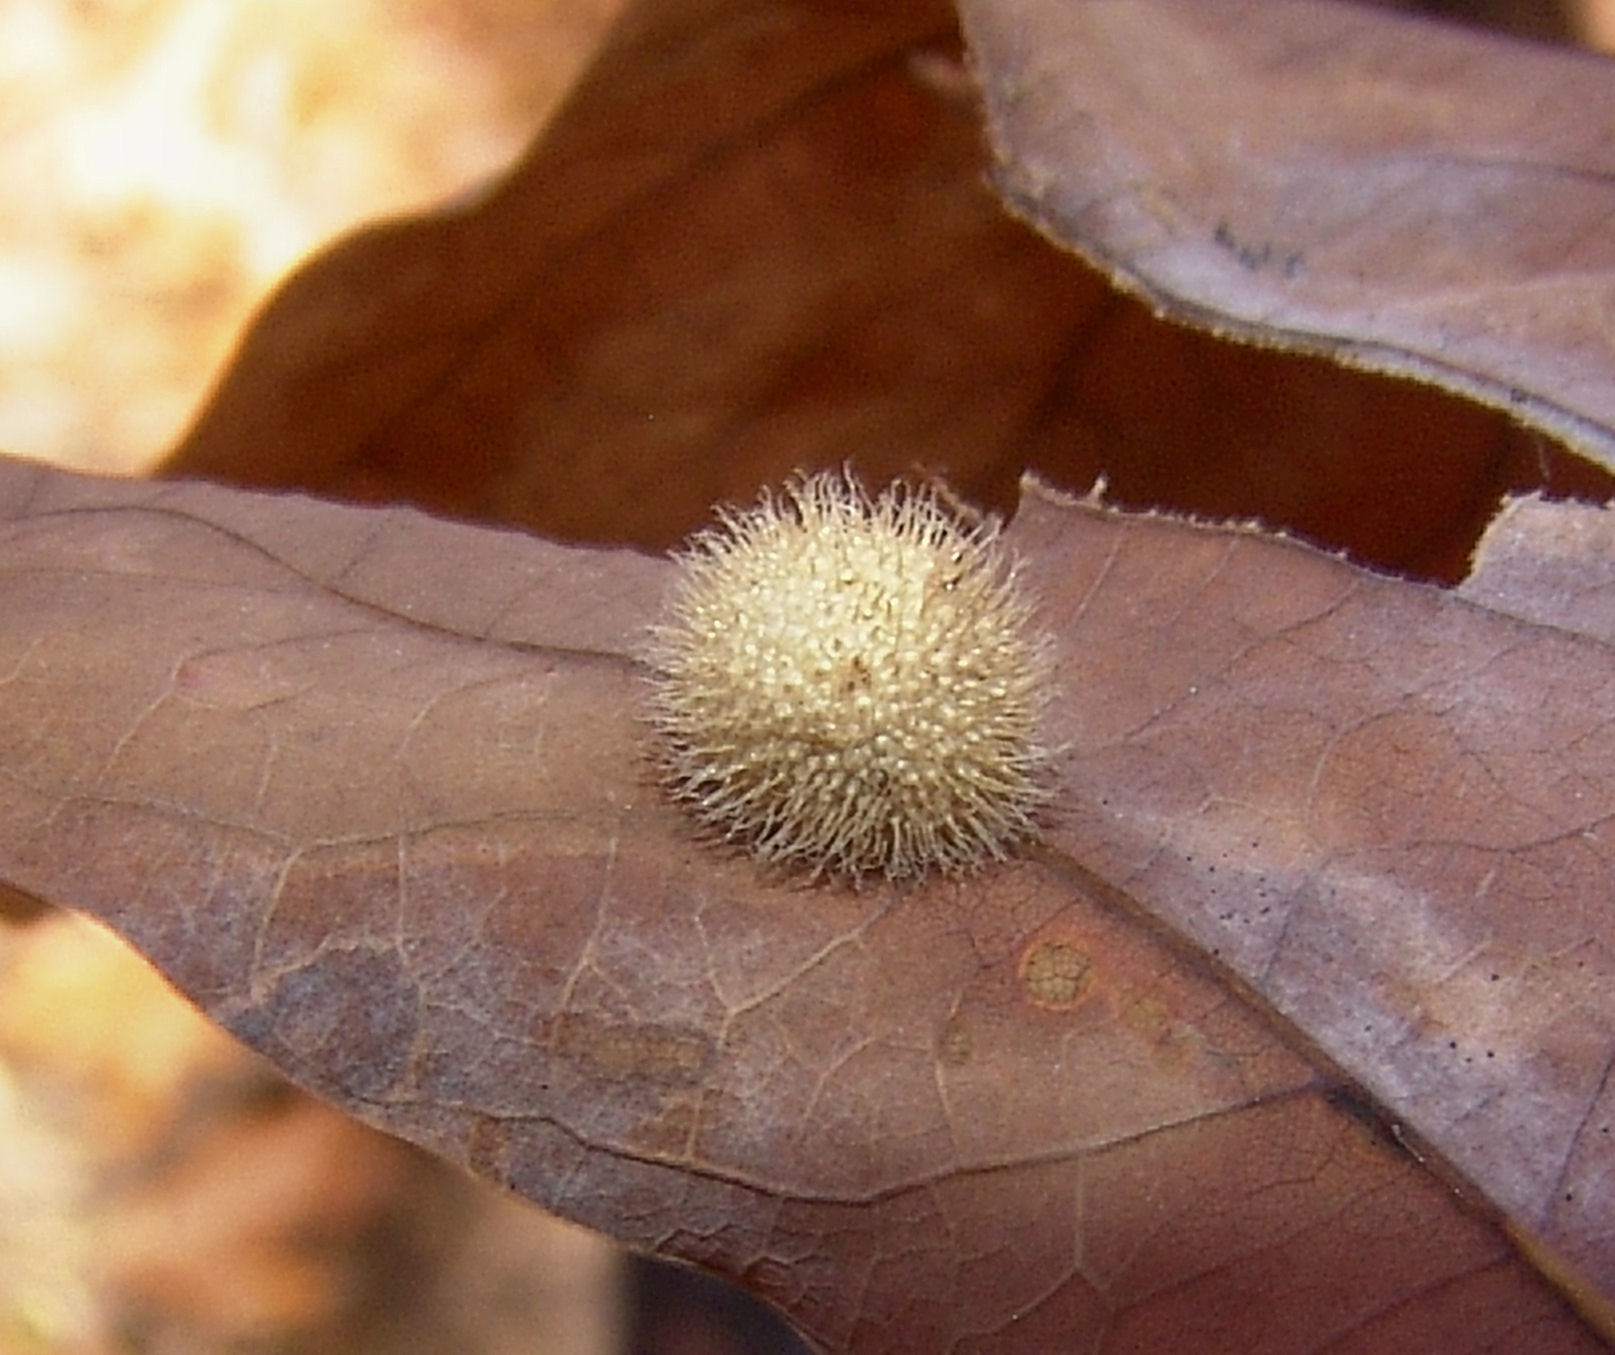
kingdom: Animalia
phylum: Arthropoda
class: Insecta
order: Hymenoptera
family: Cynipidae
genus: Acraspis
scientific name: Acraspis erinacei
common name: Hedgehog gall wasp
